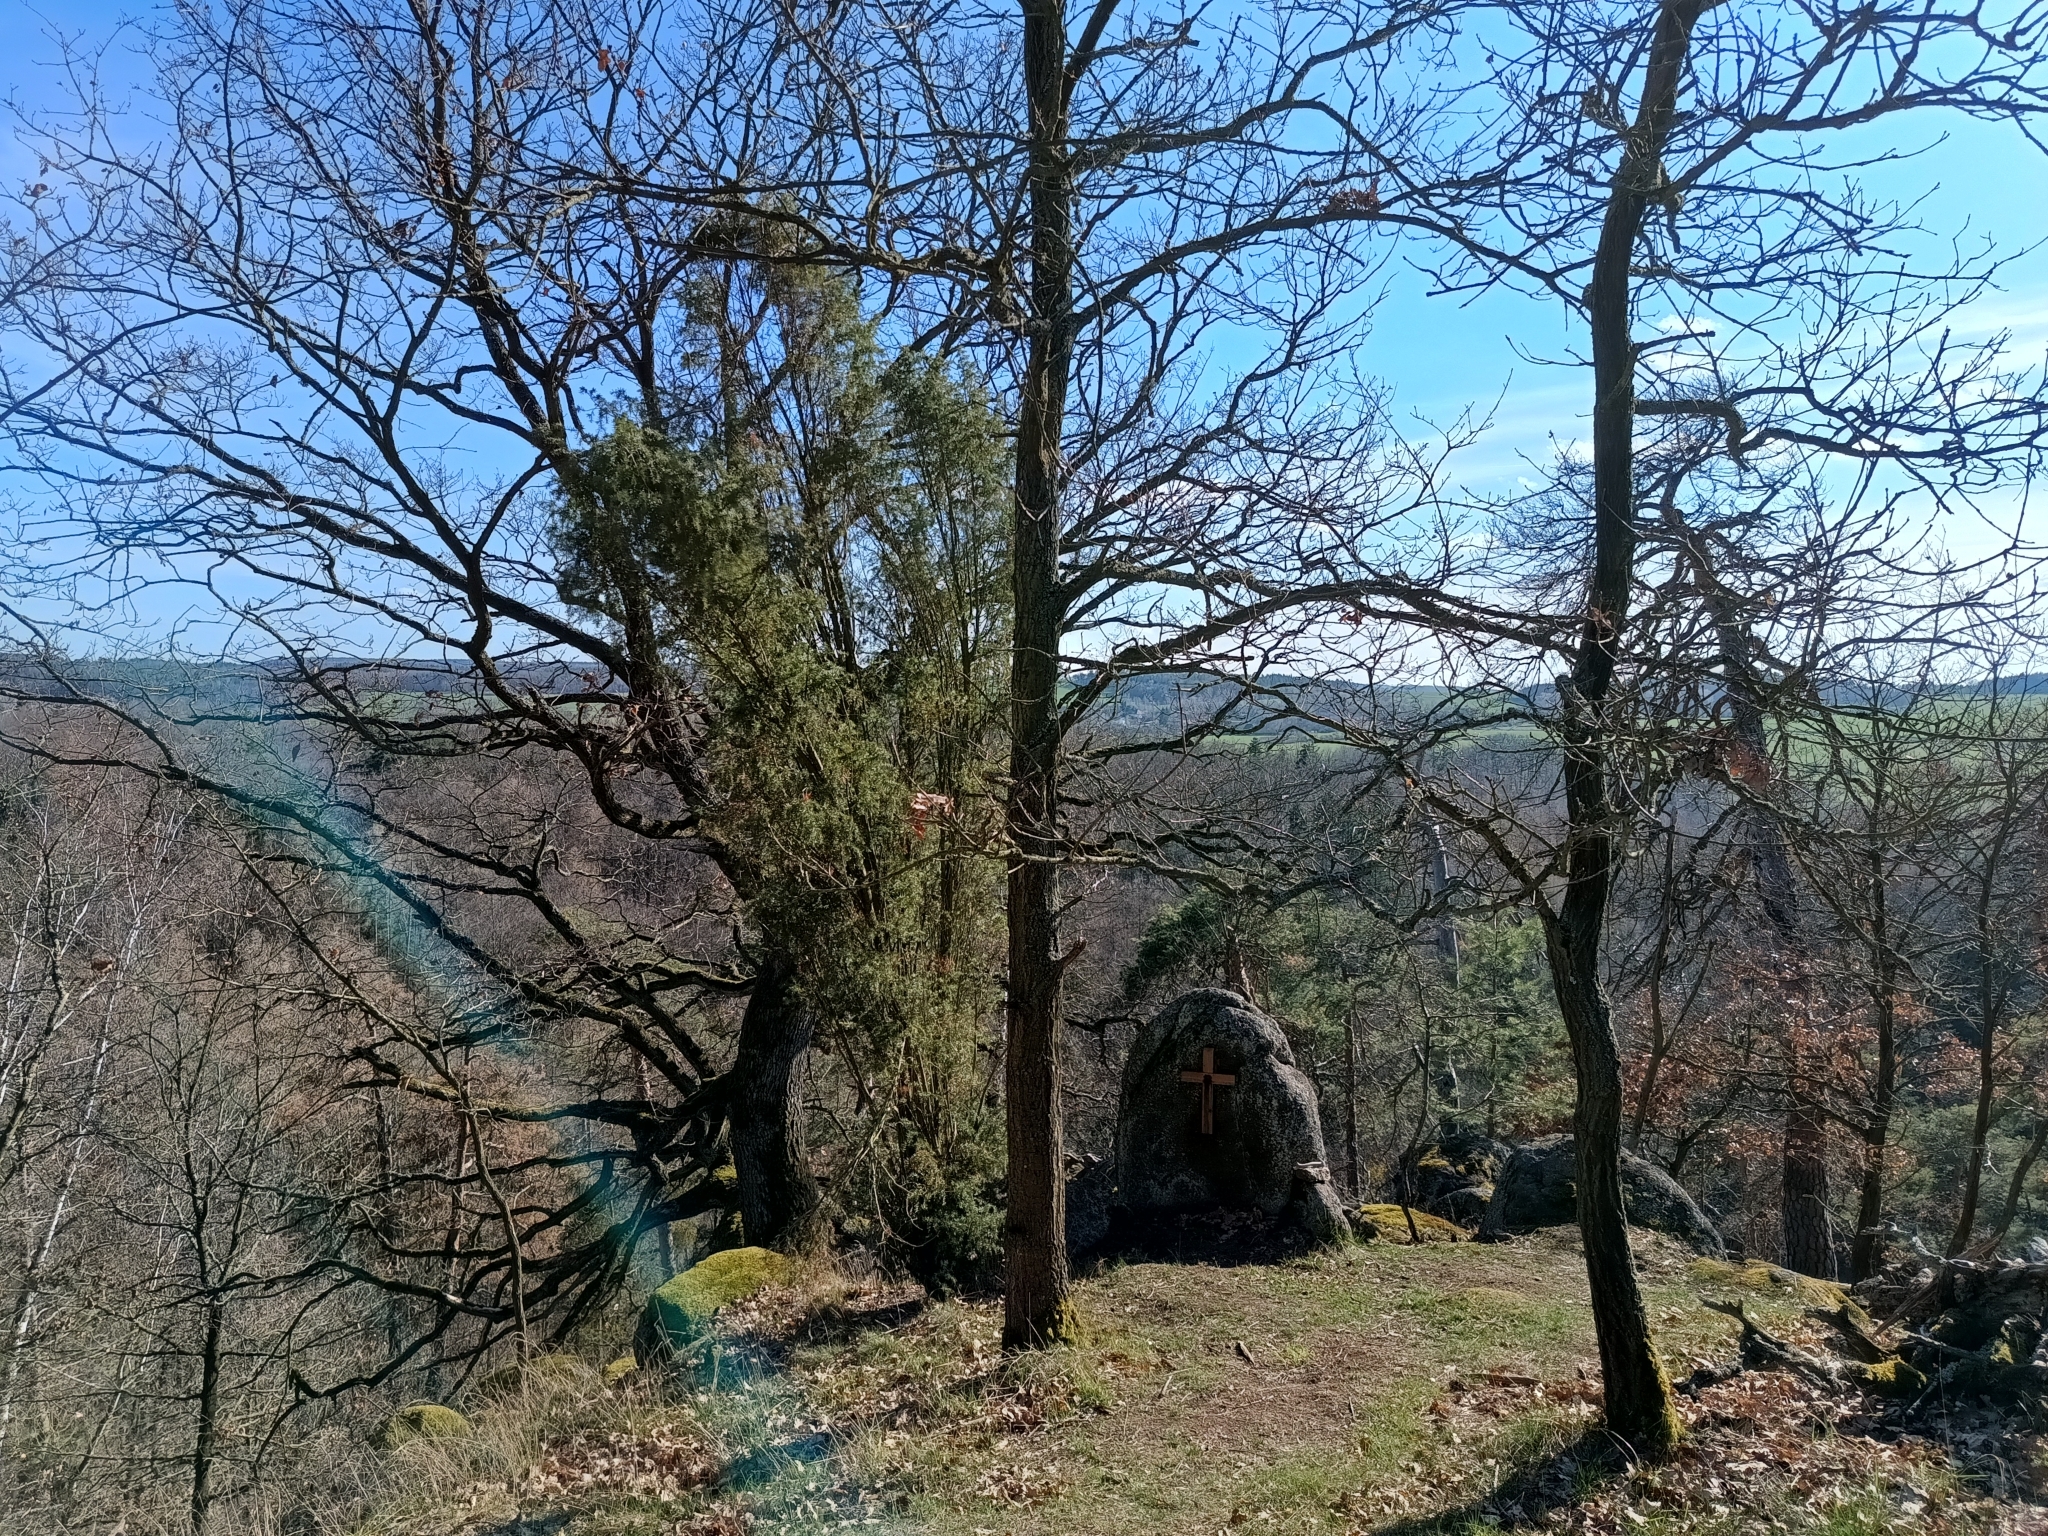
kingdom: Plantae
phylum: Tracheophyta
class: Pinopsida
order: Pinales
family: Cupressaceae
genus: Juniperus
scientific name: Juniperus communis
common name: Common juniper
